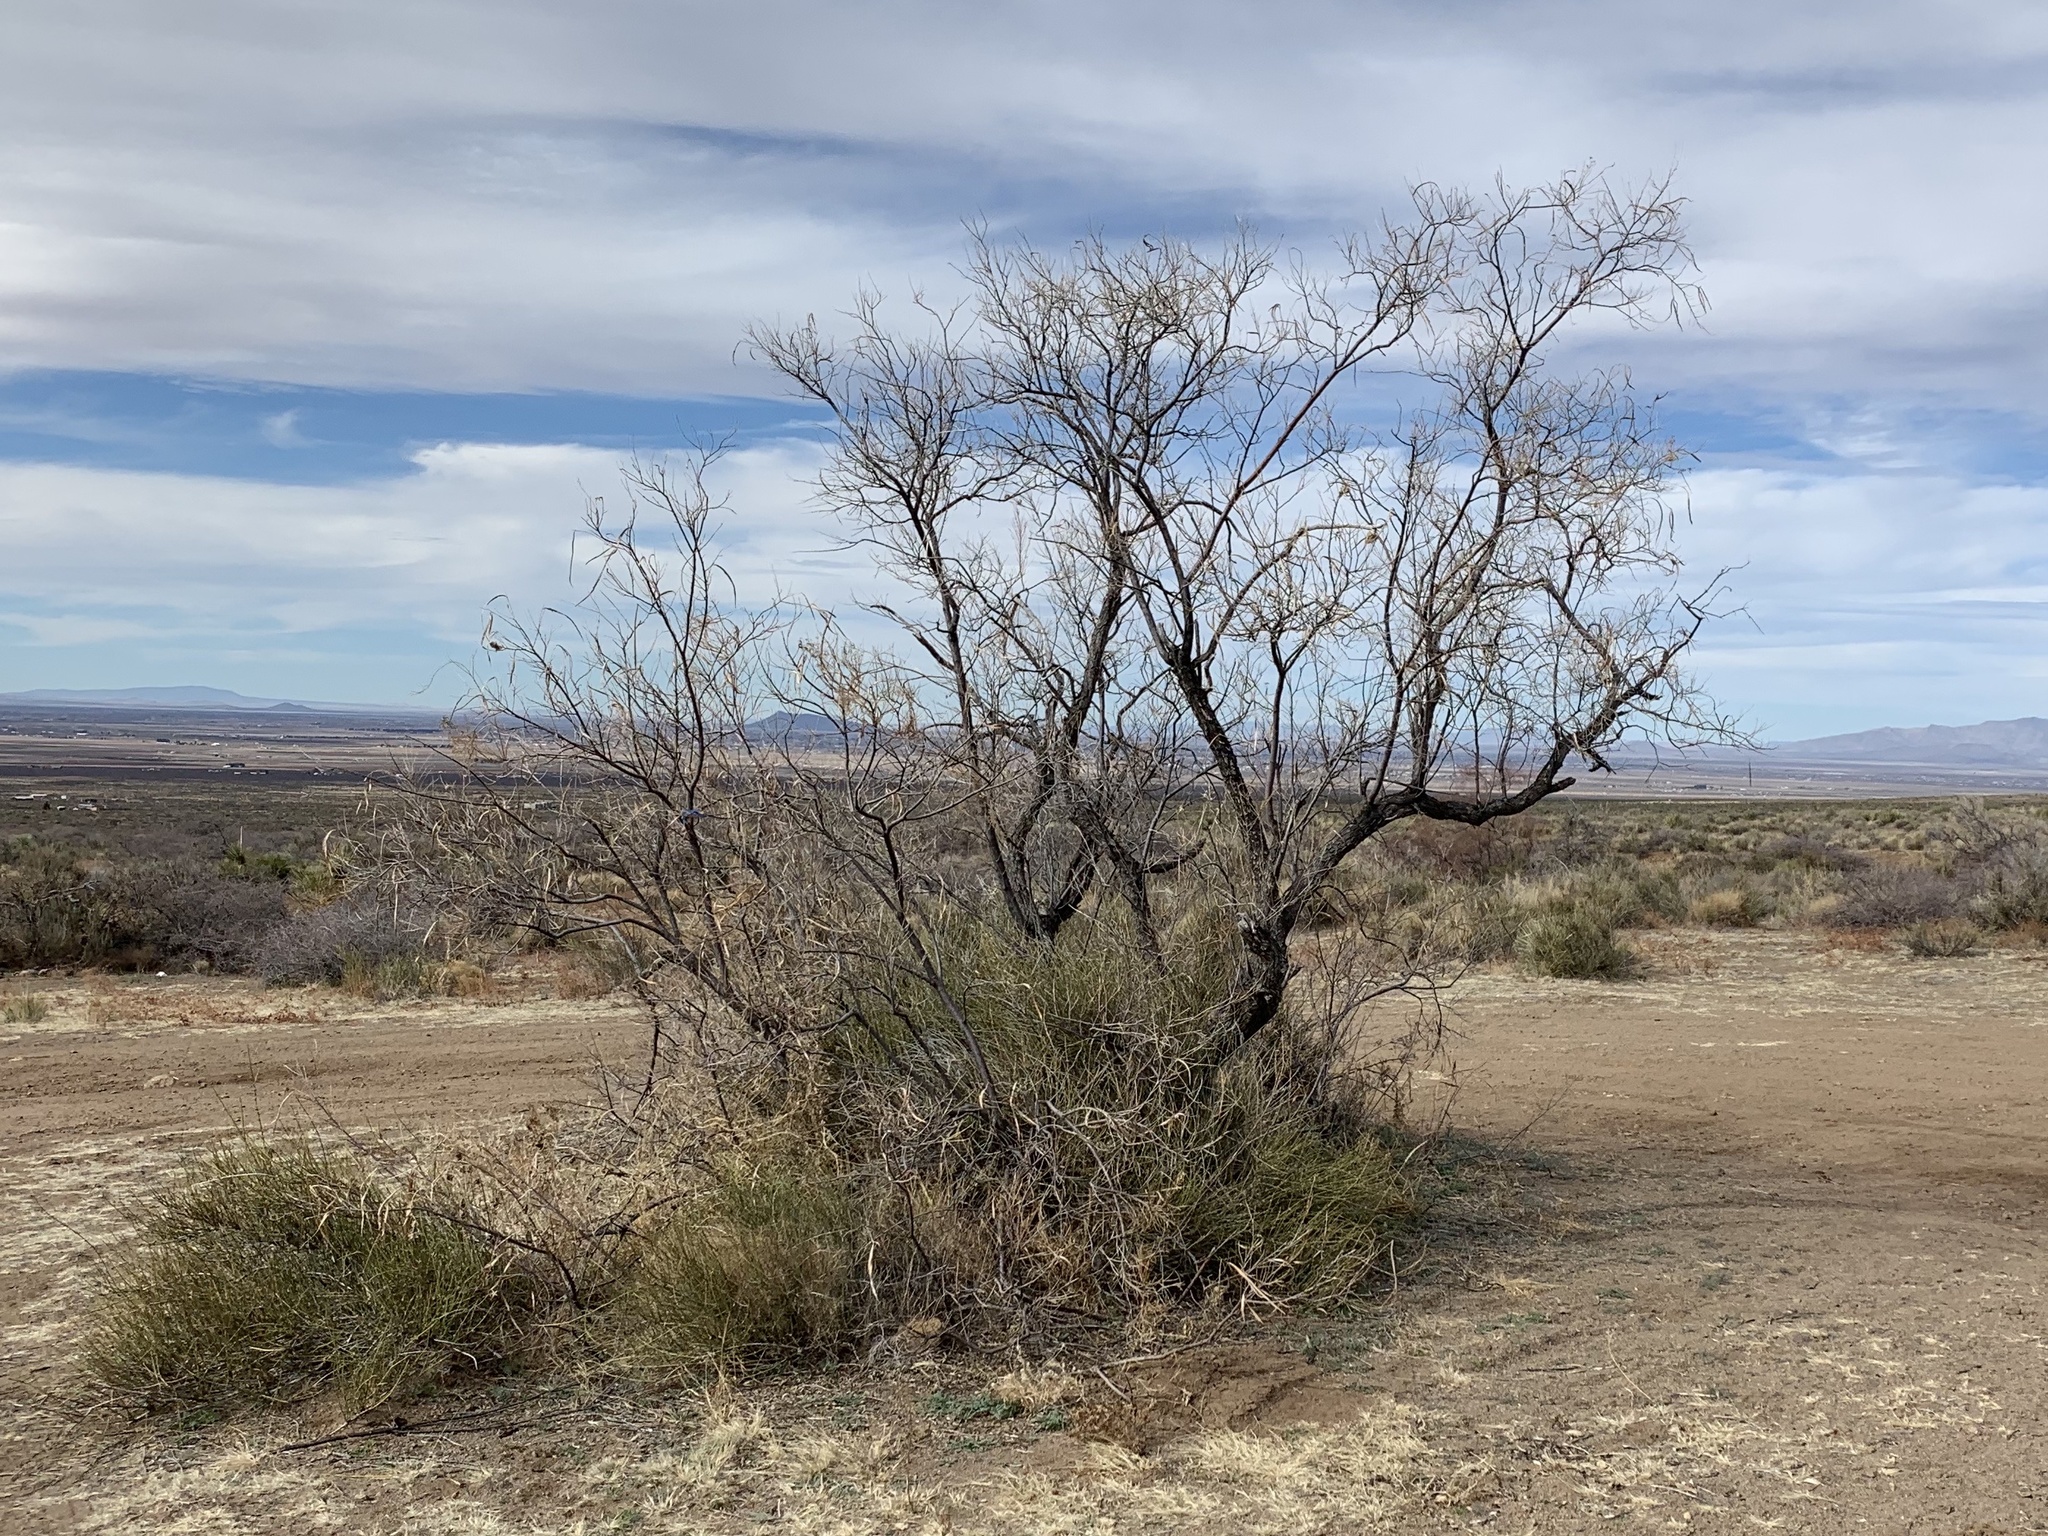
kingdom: Plantae
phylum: Tracheophyta
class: Magnoliopsida
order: Lamiales
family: Bignoniaceae
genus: Chilopsis
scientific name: Chilopsis linearis
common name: Desert-willow
